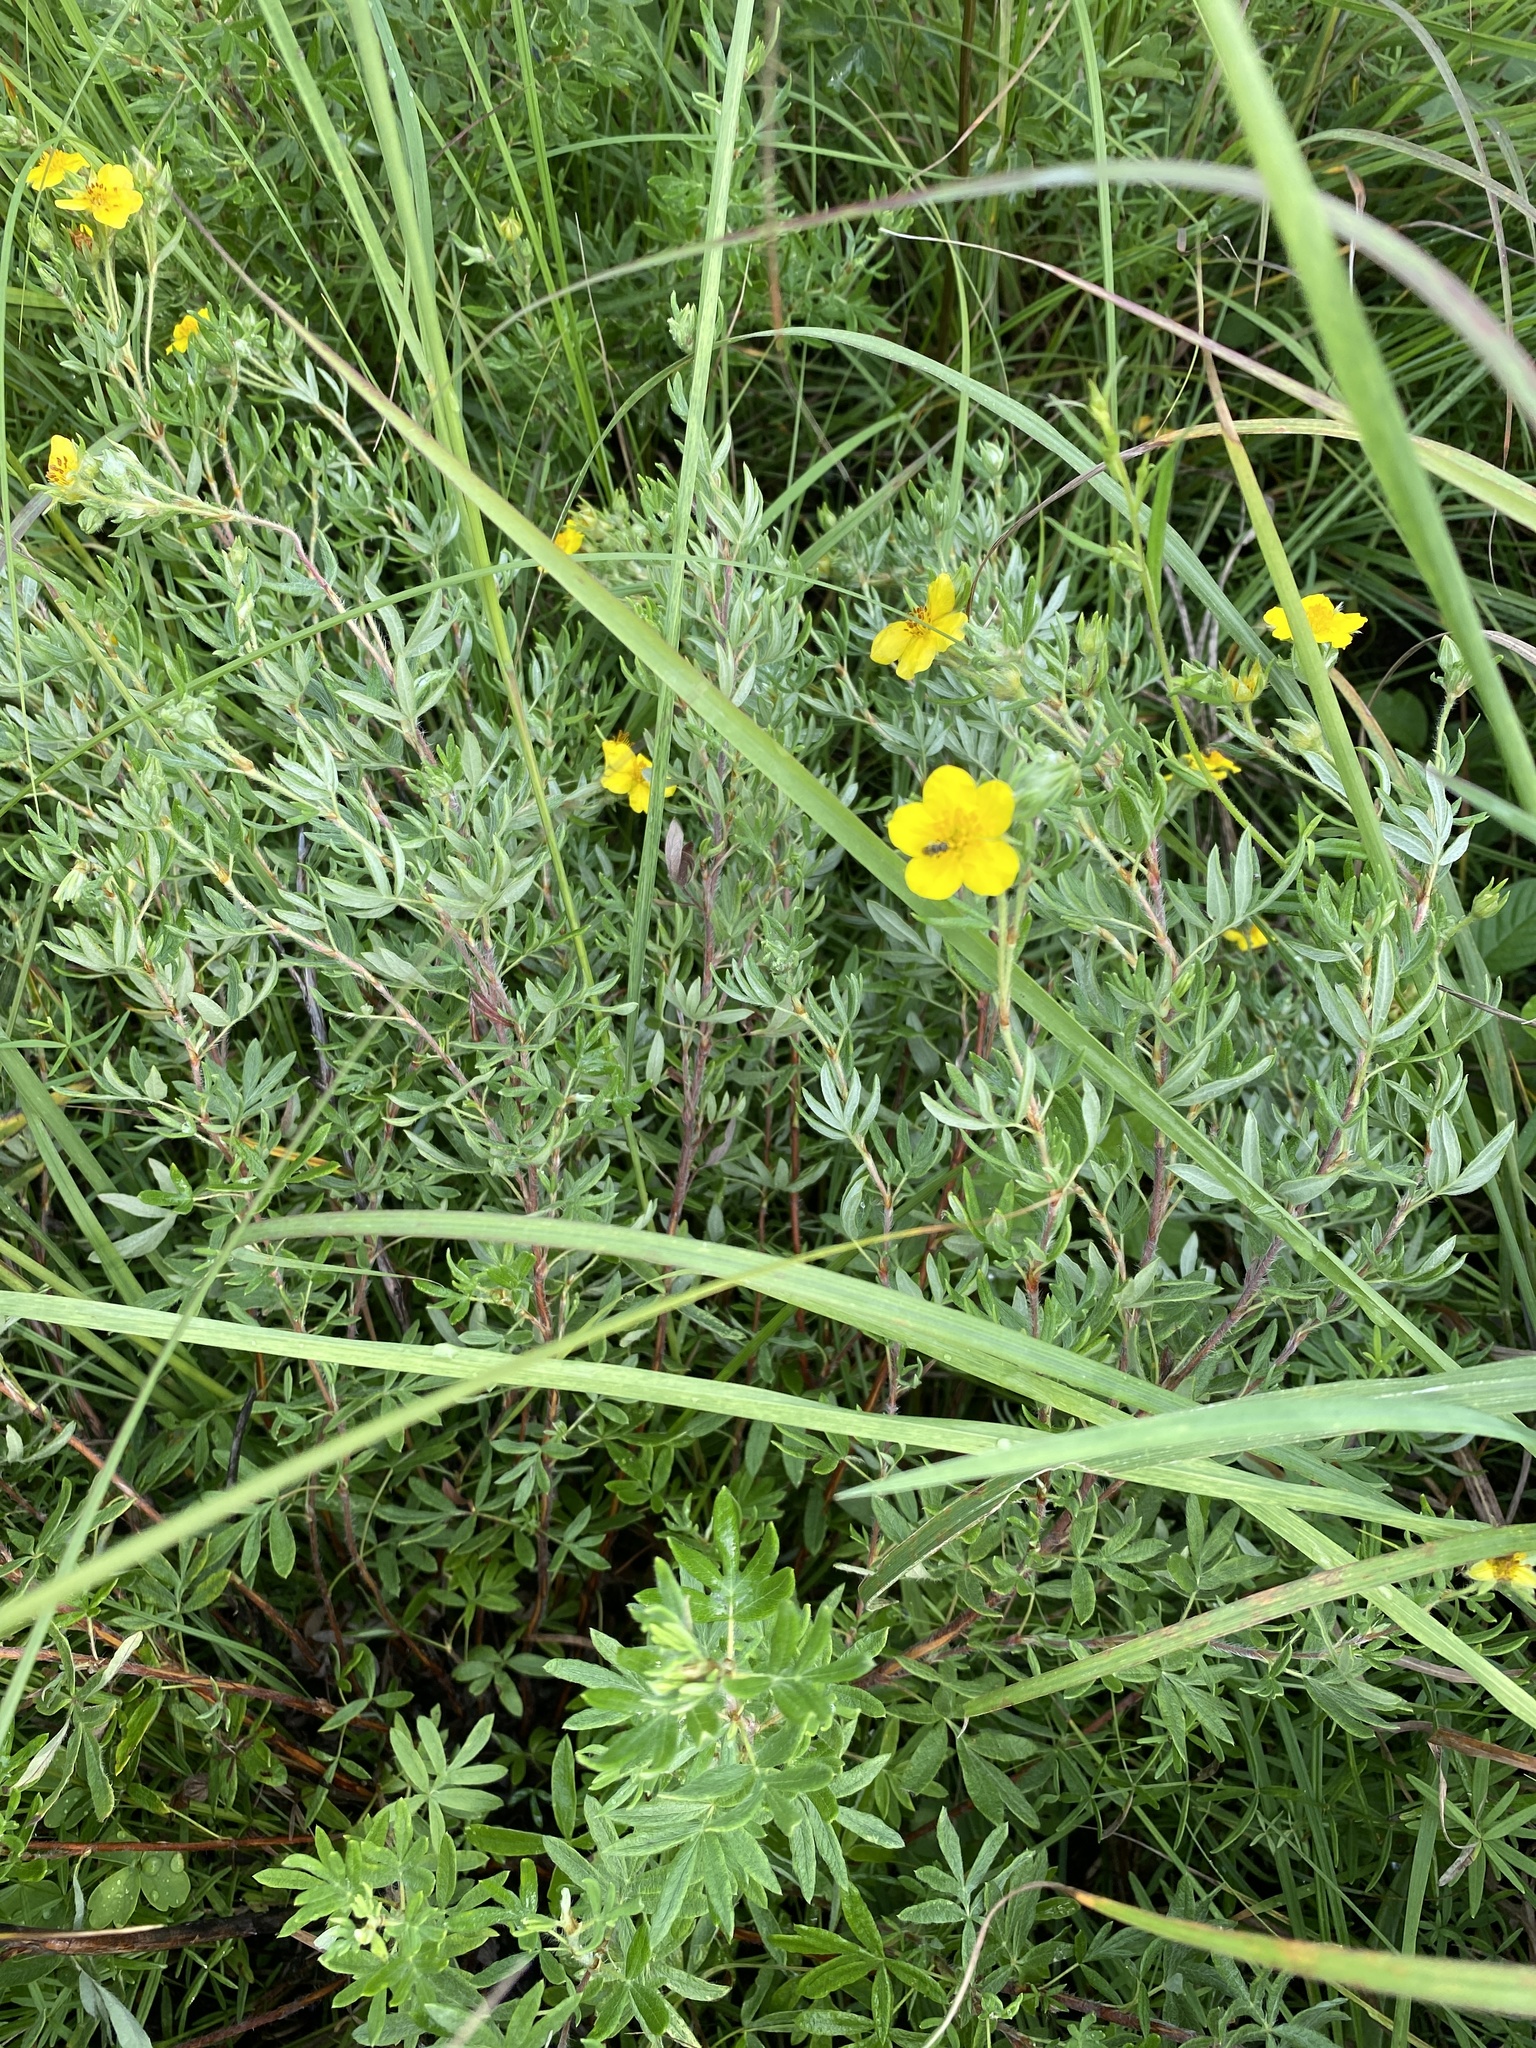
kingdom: Plantae
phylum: Tracheophyta
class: Magnoliopsida
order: Rosales
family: Rosaceae
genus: Dasiphora
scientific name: Dasiphora fruticosa
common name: Shrubby cinquefoil
